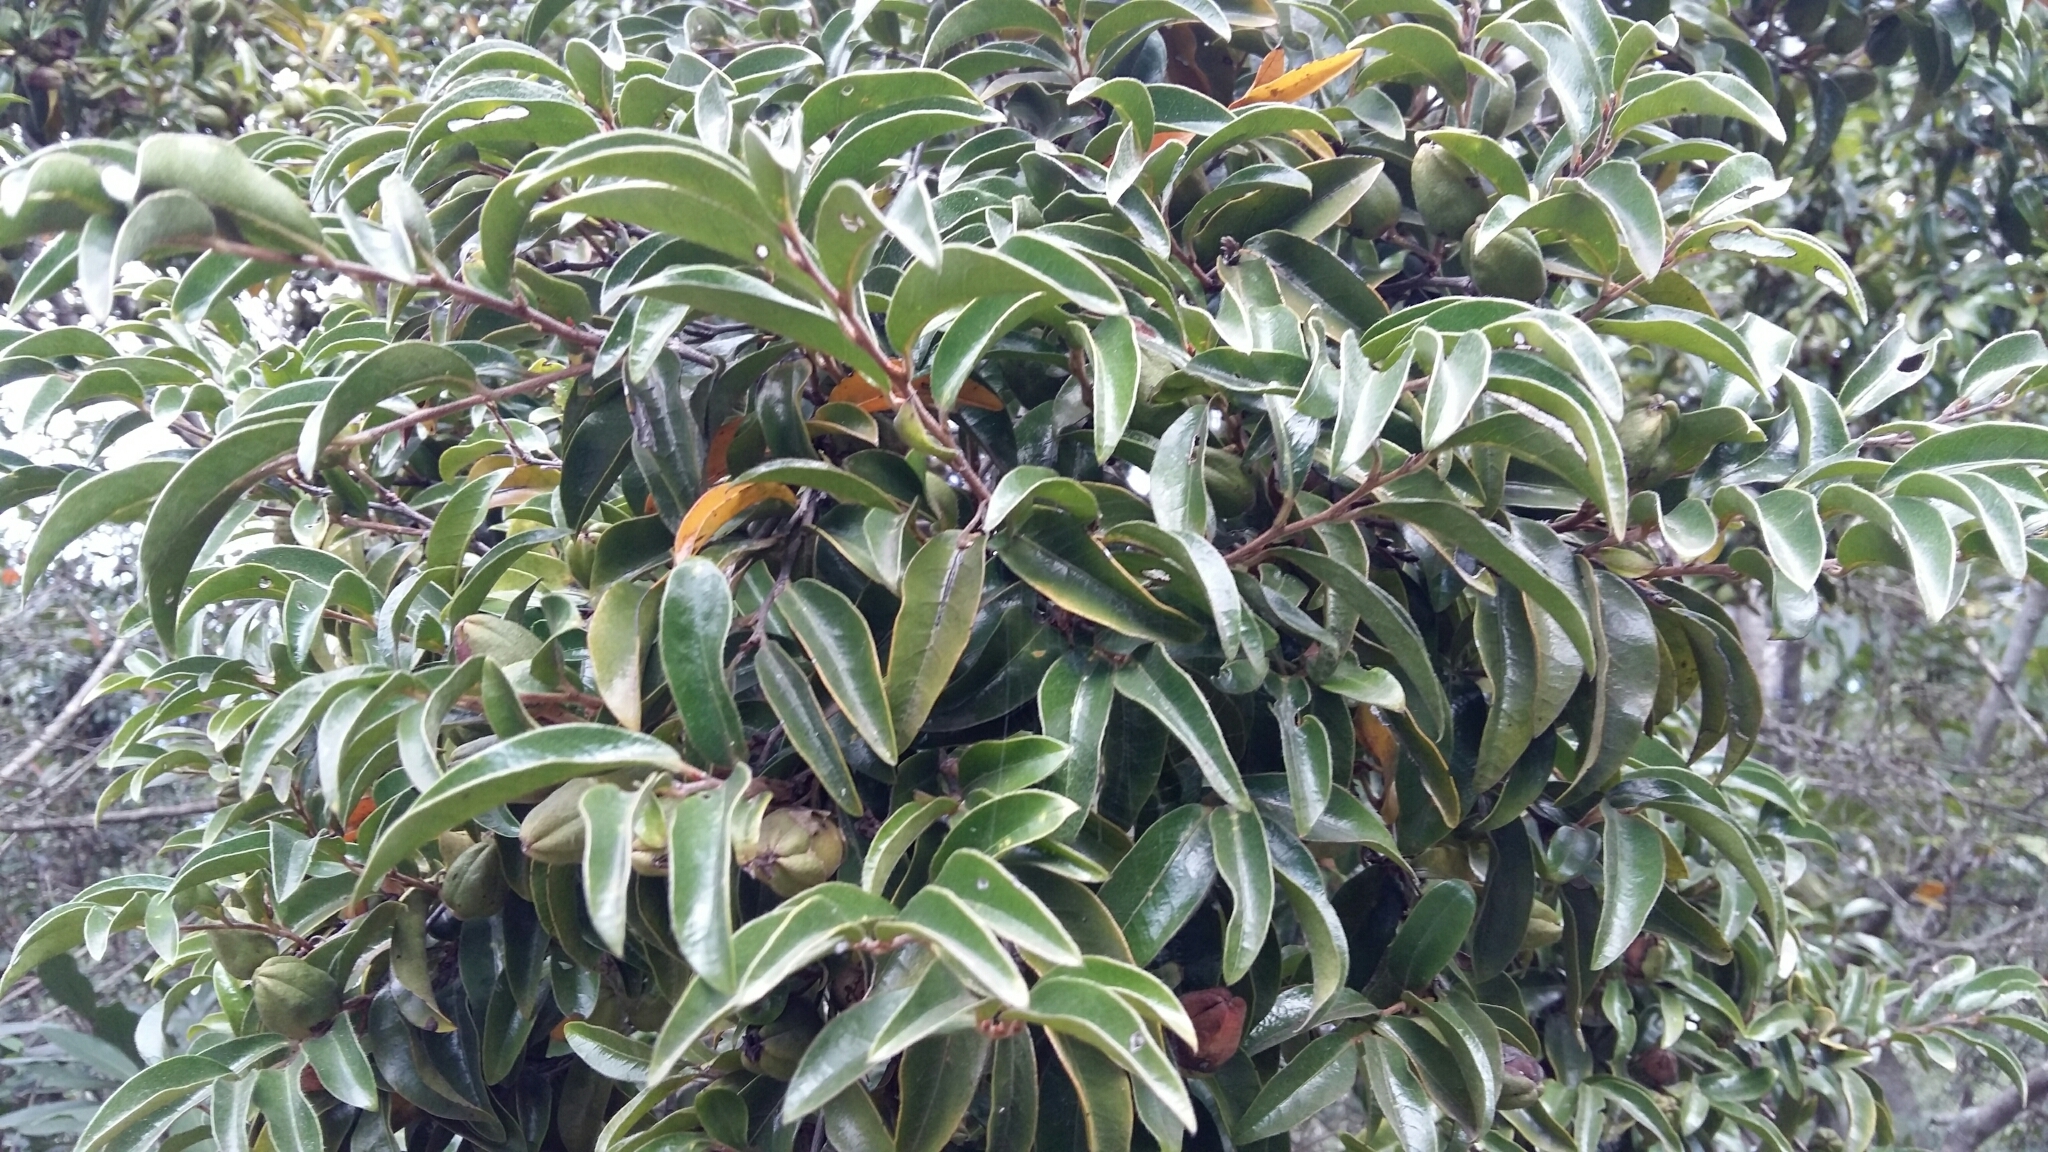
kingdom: Plantae
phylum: Tracheophyta
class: Magnoliopsida
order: Ericales
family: Ebenaceae
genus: Diospyros
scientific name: Diospyros whyteana
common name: Bladder-nut
